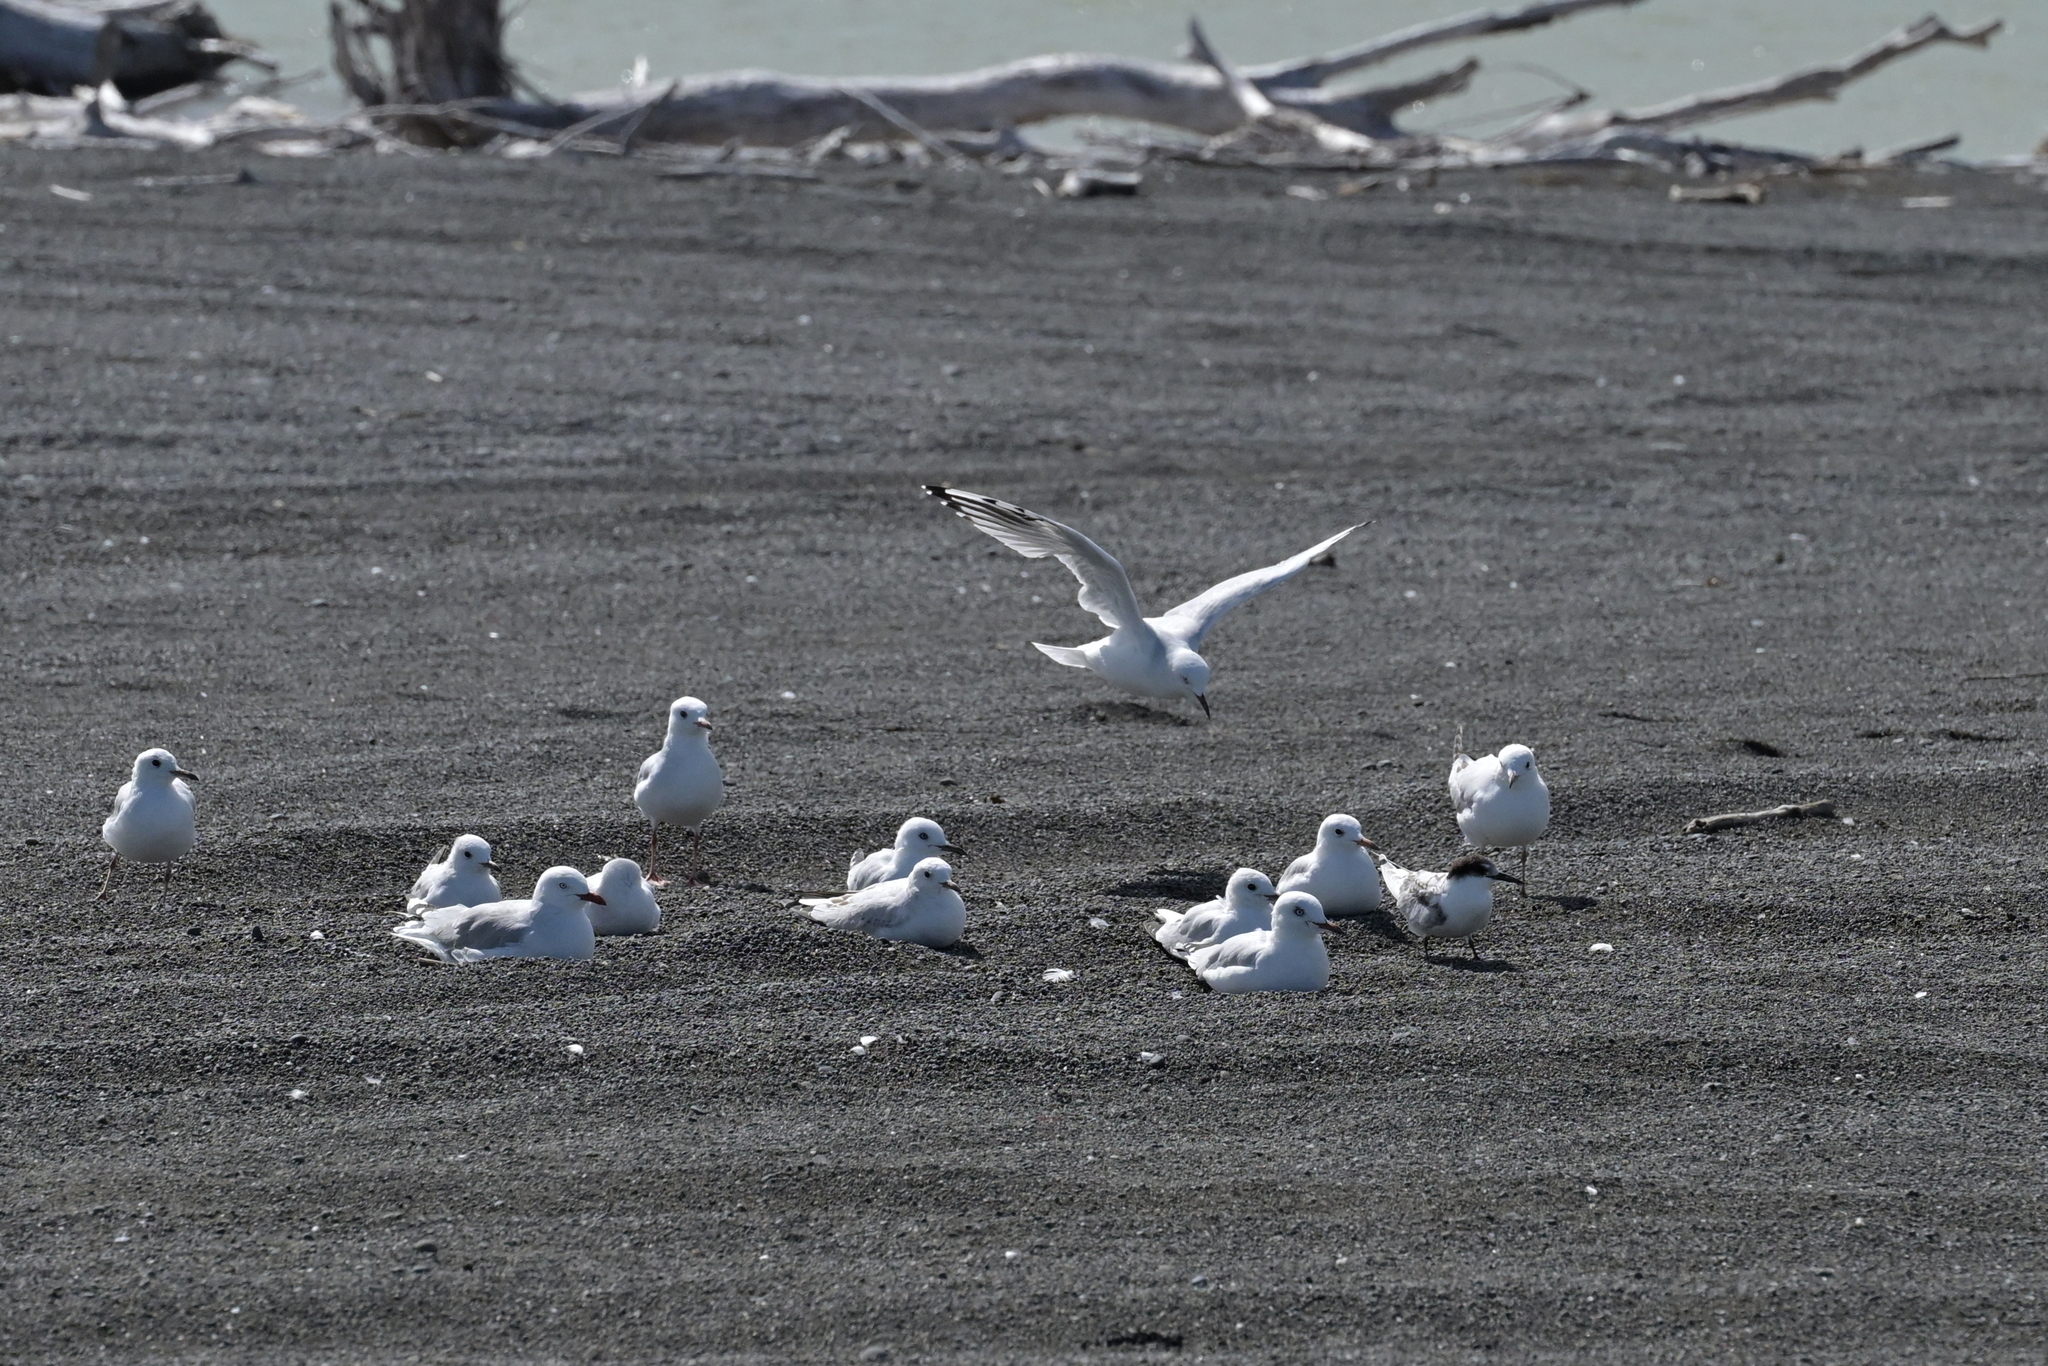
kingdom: Animalia
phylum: Chordata
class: Aves
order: Charadriiformes
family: Laridae
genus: Chroicocephalus
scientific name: Chroicocephalus novaehollandiae
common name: Silver gull
